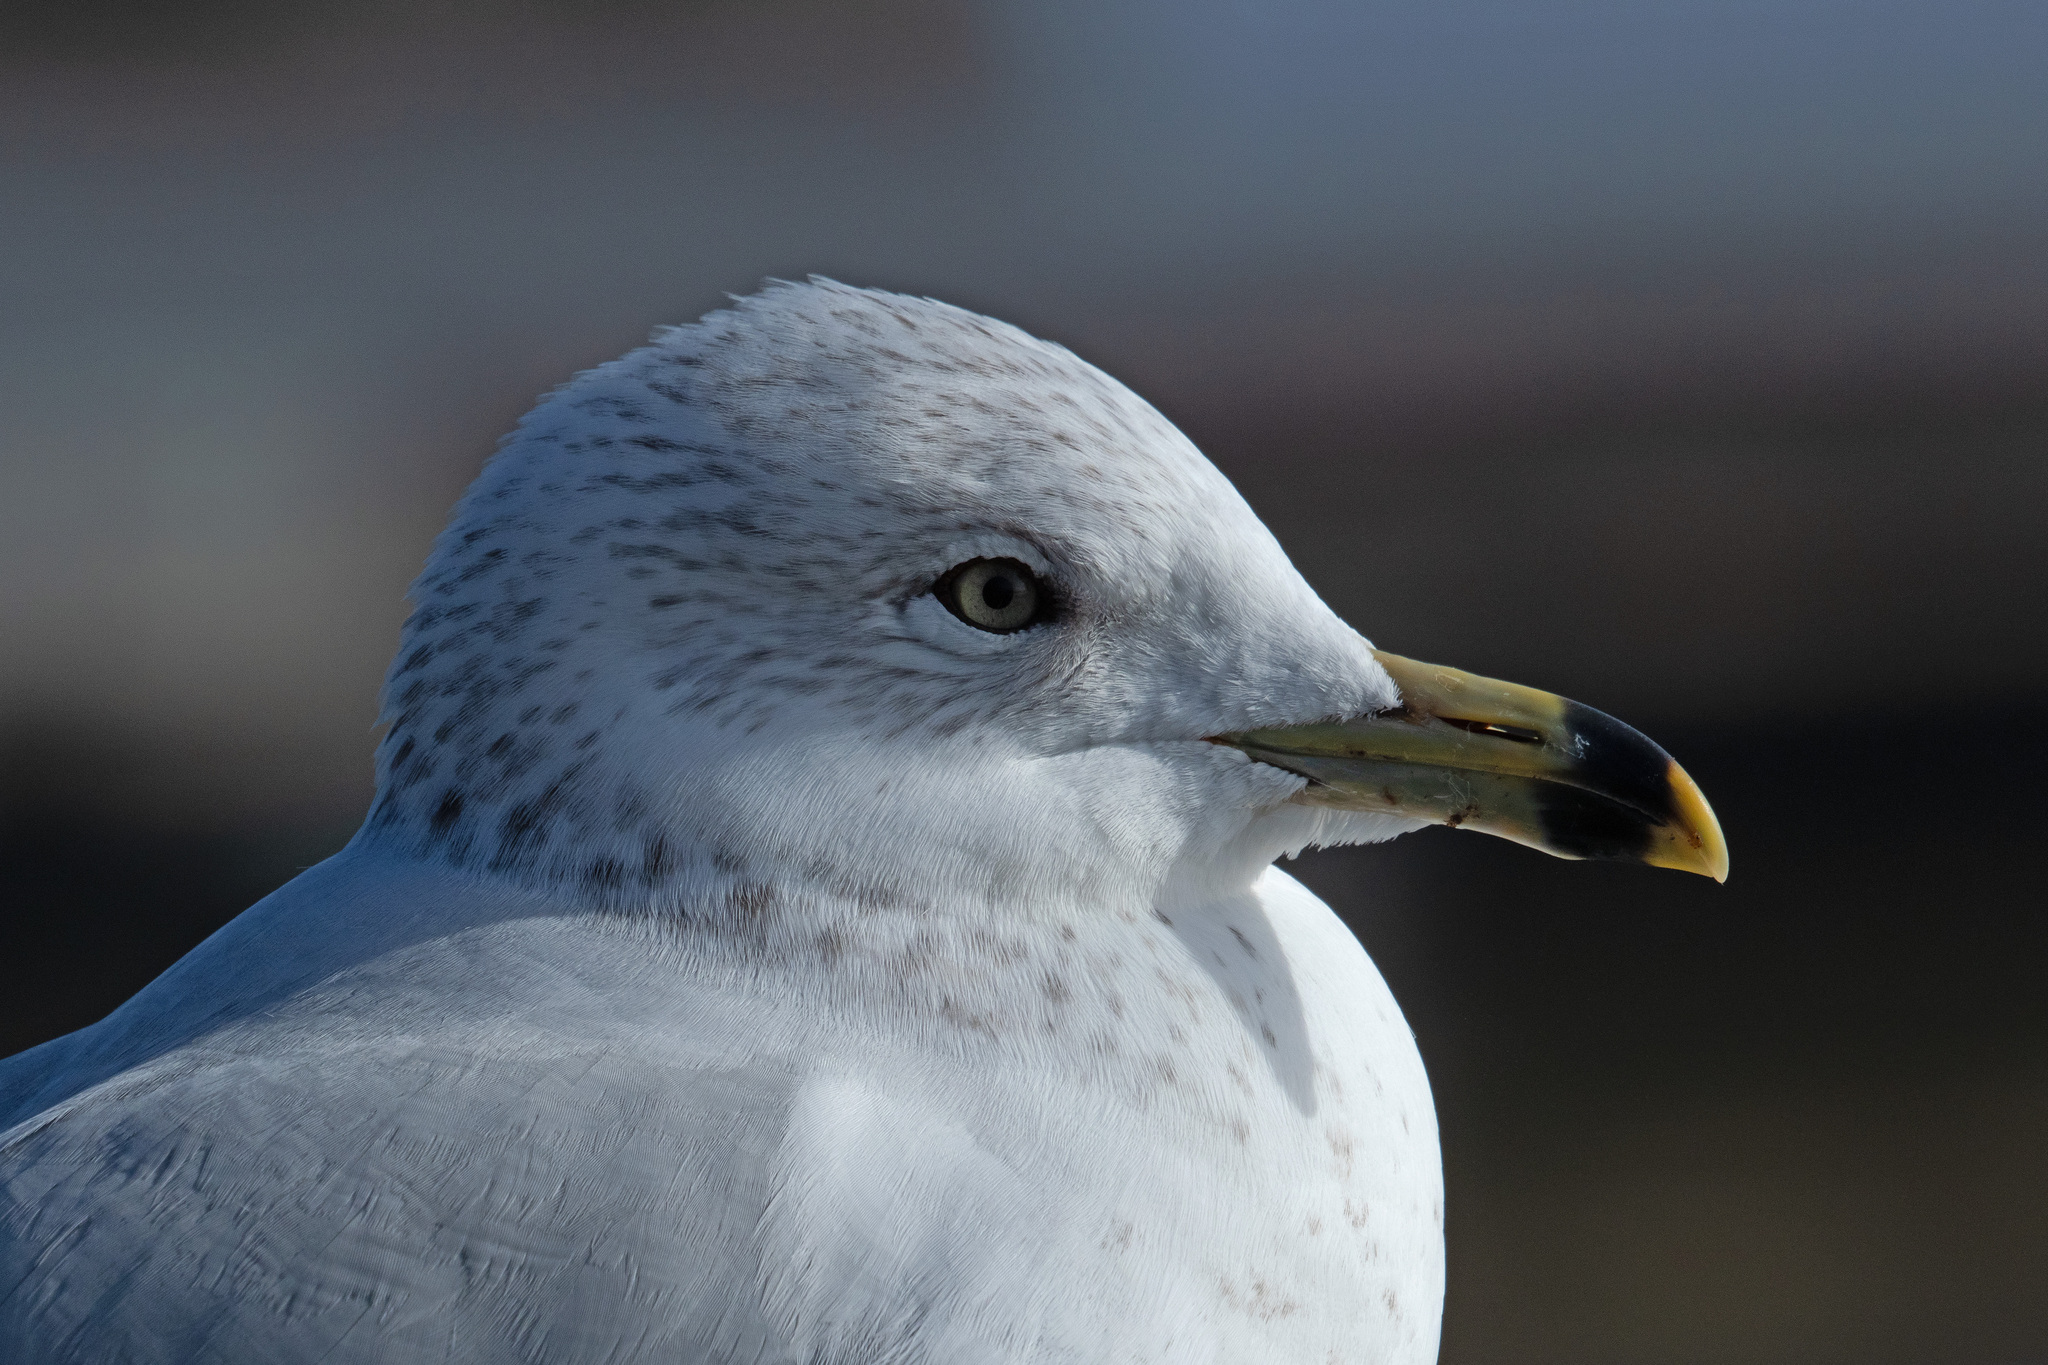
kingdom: Animalia
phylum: Chordata
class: Aves
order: Charadriiformes
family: Laridae
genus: Larus
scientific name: Larus delawarensis
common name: Ring-billed gull
